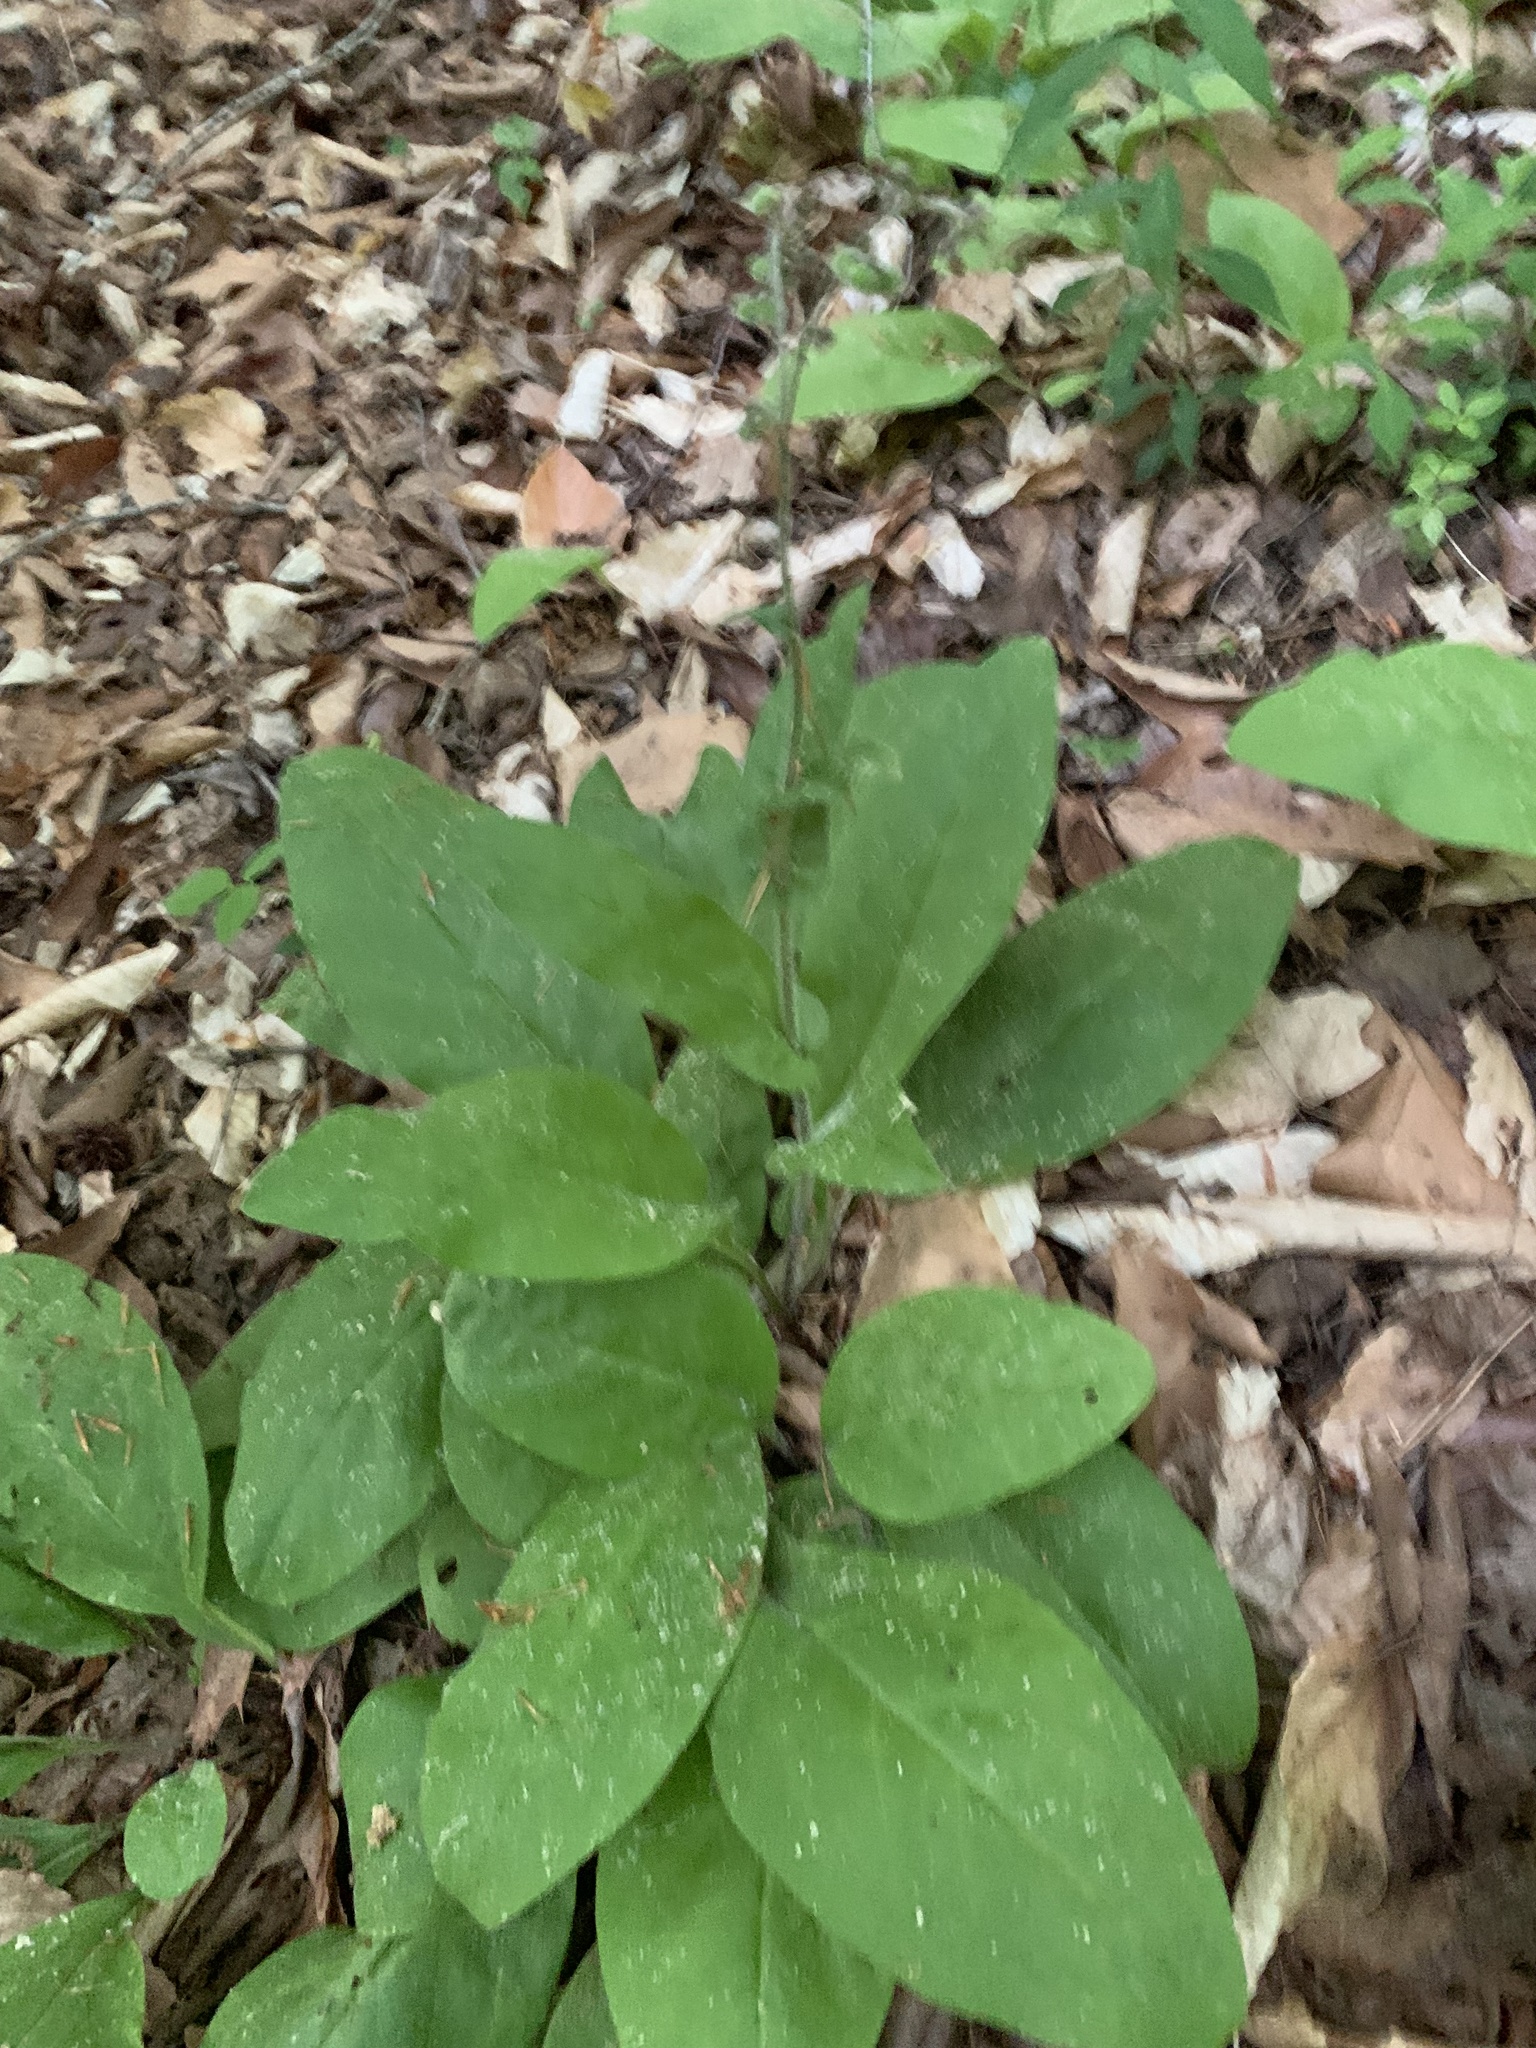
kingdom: Plantae
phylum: Tracheophyta
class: Magnoliopsida
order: Boraginales
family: Boraginaceae
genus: Andersonglossum
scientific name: Andersonglossum virginianum
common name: Wild comfrey
